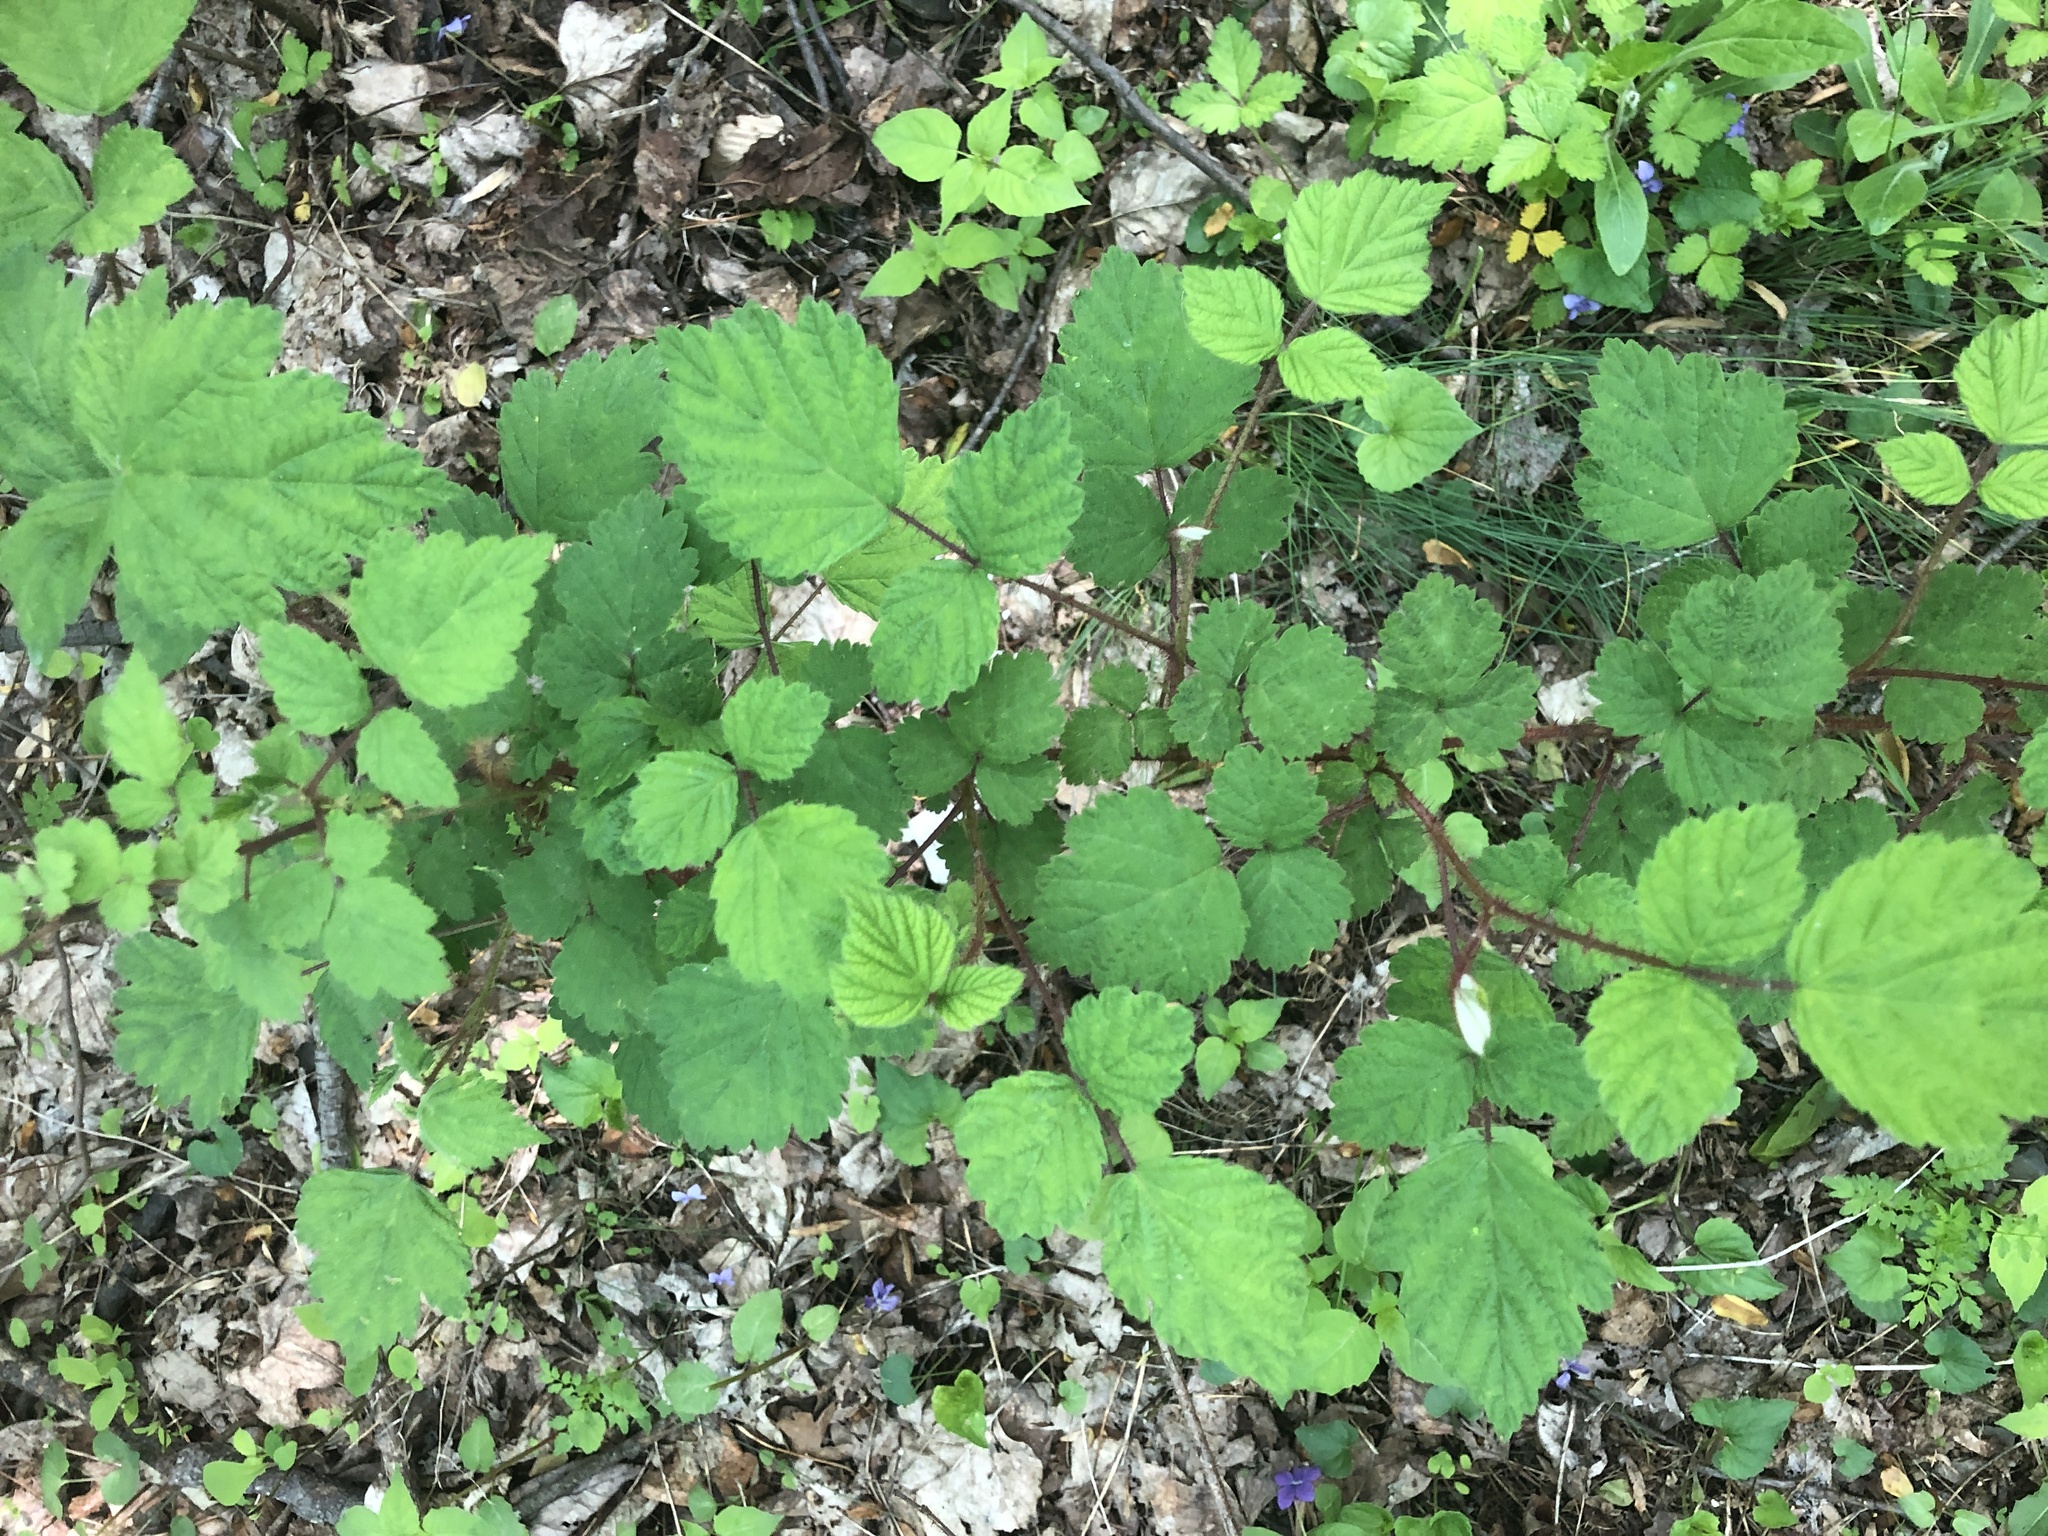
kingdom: Plantae
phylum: Tracheophyta
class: Magnoliopsida
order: Rosales
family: Rosaceae
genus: Rubus
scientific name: Rubus phoenicolasius
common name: Japanese wineberry
